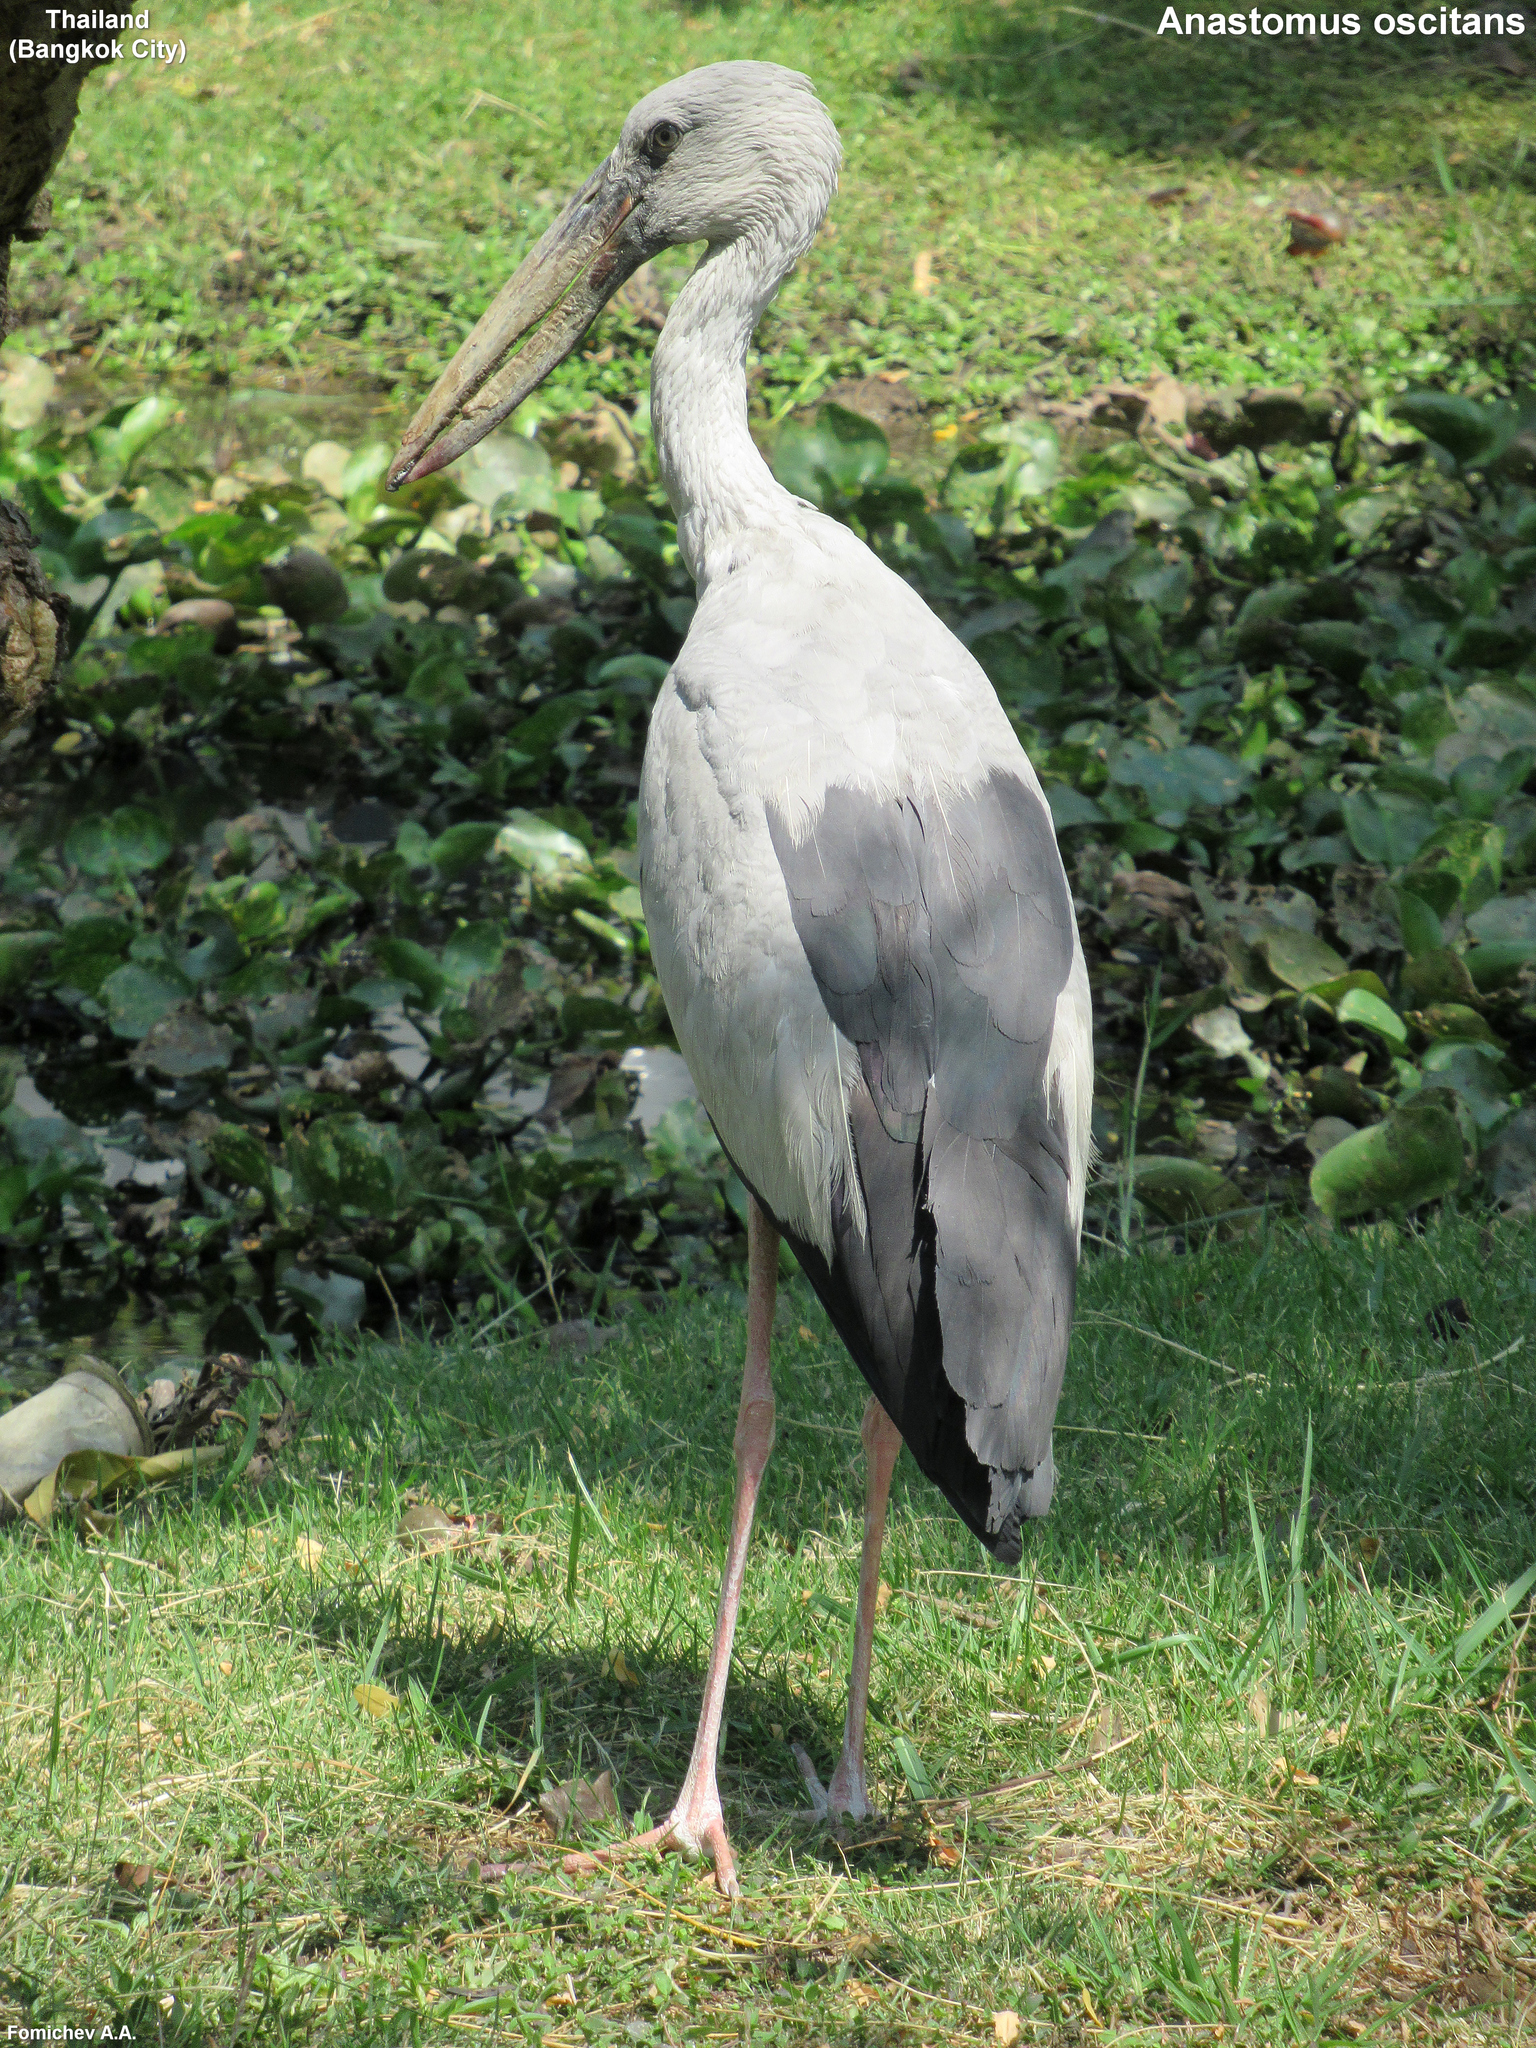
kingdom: Animalia
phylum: Chordata
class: Aves
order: Ciconiiformes
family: Ciconiidae
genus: Anastomus
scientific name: Anastomus oscitans
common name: Asian openbill
